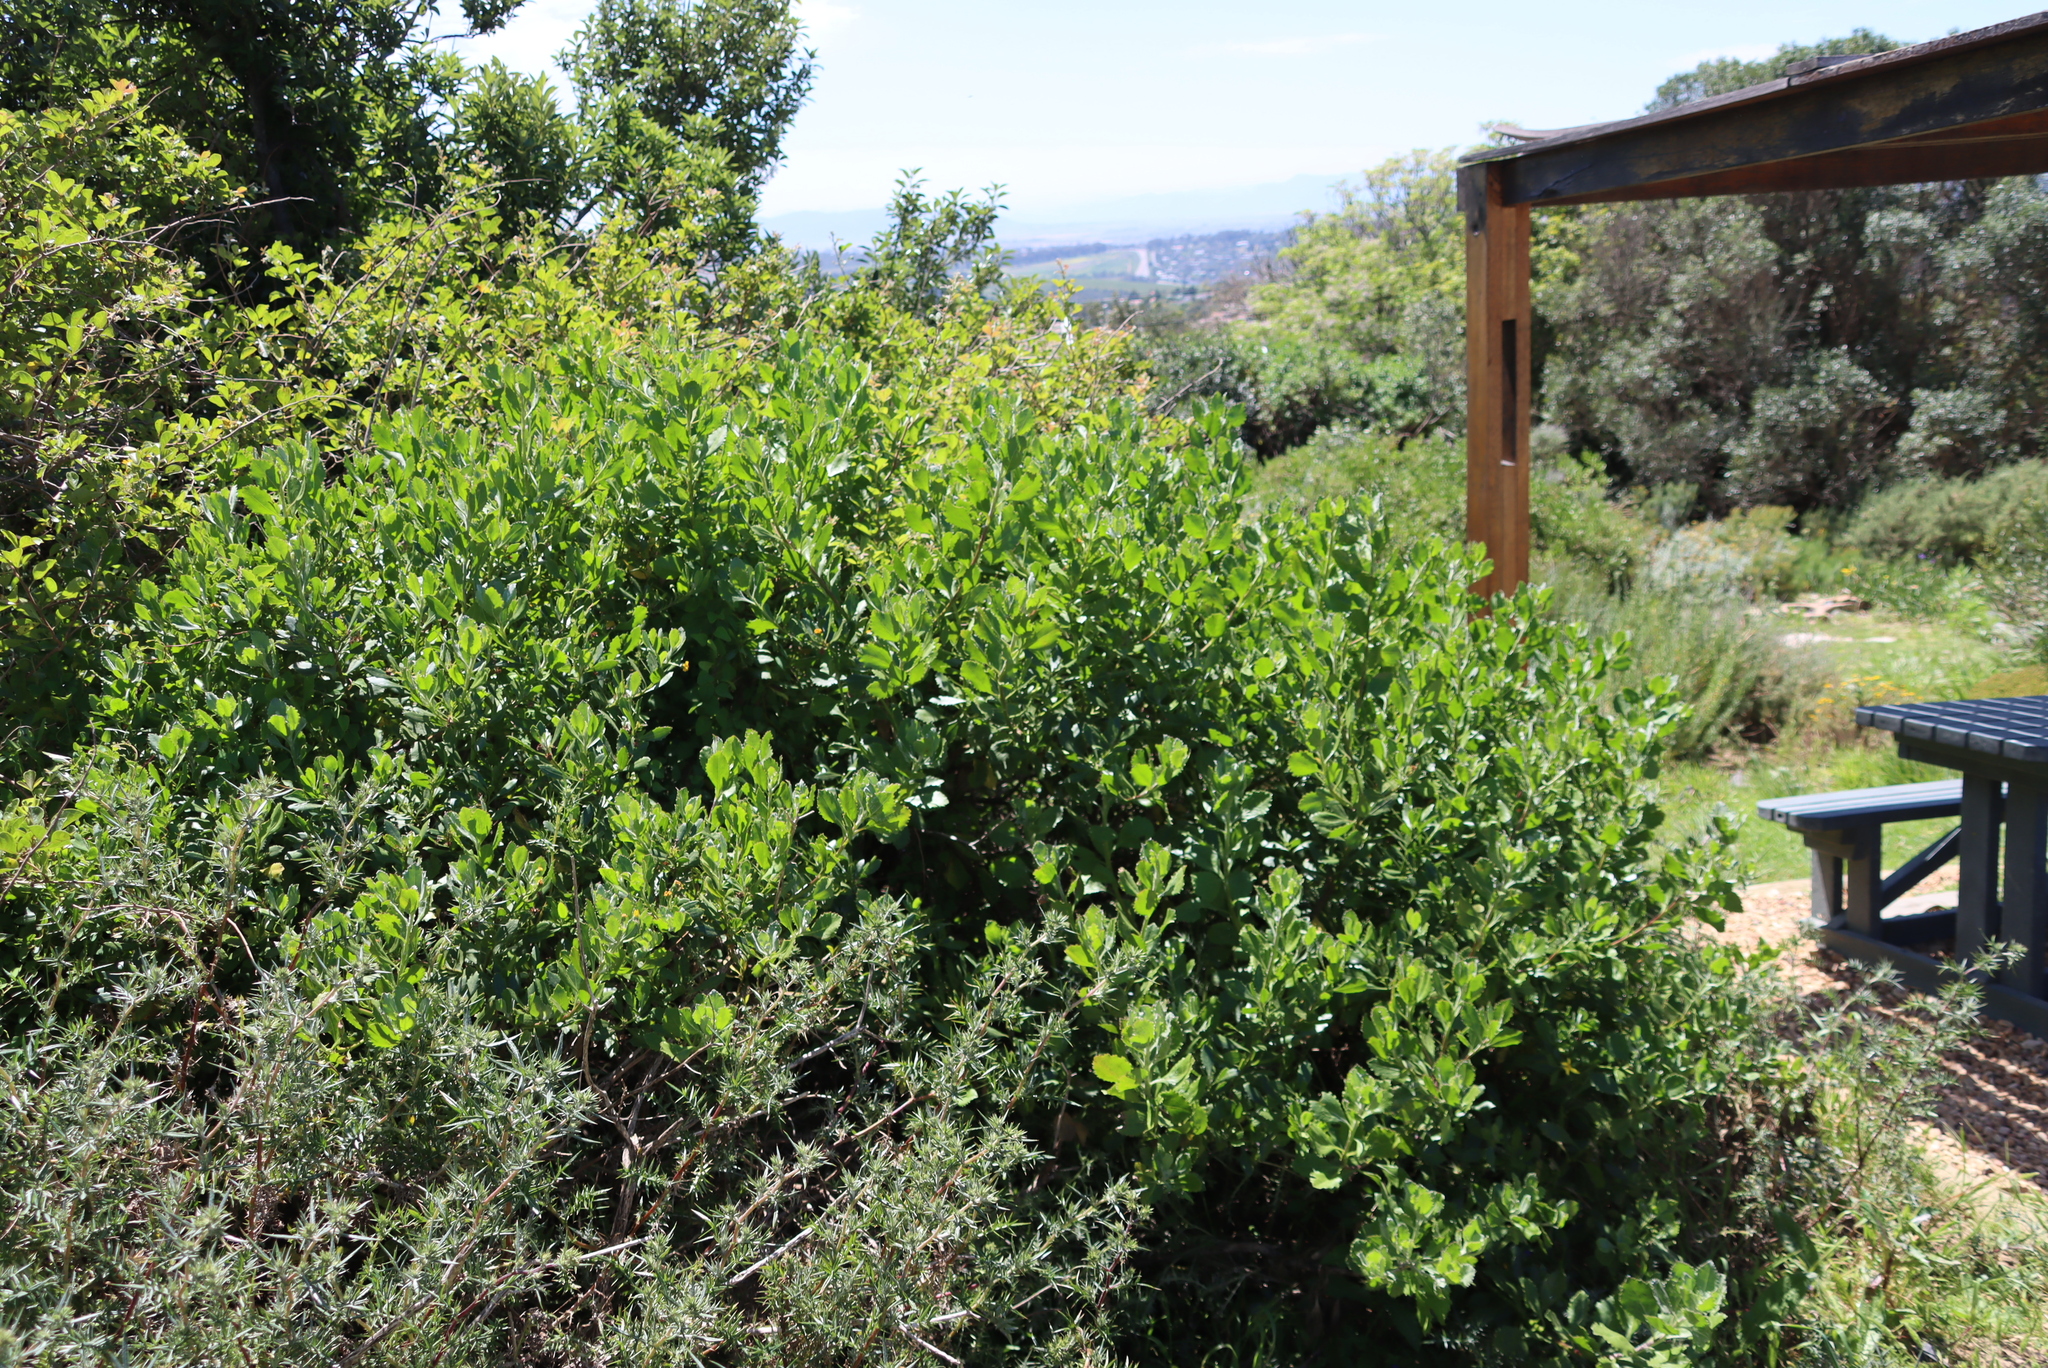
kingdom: Plantae
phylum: Tracheophyta
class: Magnoliopsida
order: Asterales
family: Asteraceae
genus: Osteospermum
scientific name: Osteospermum moniliferum
